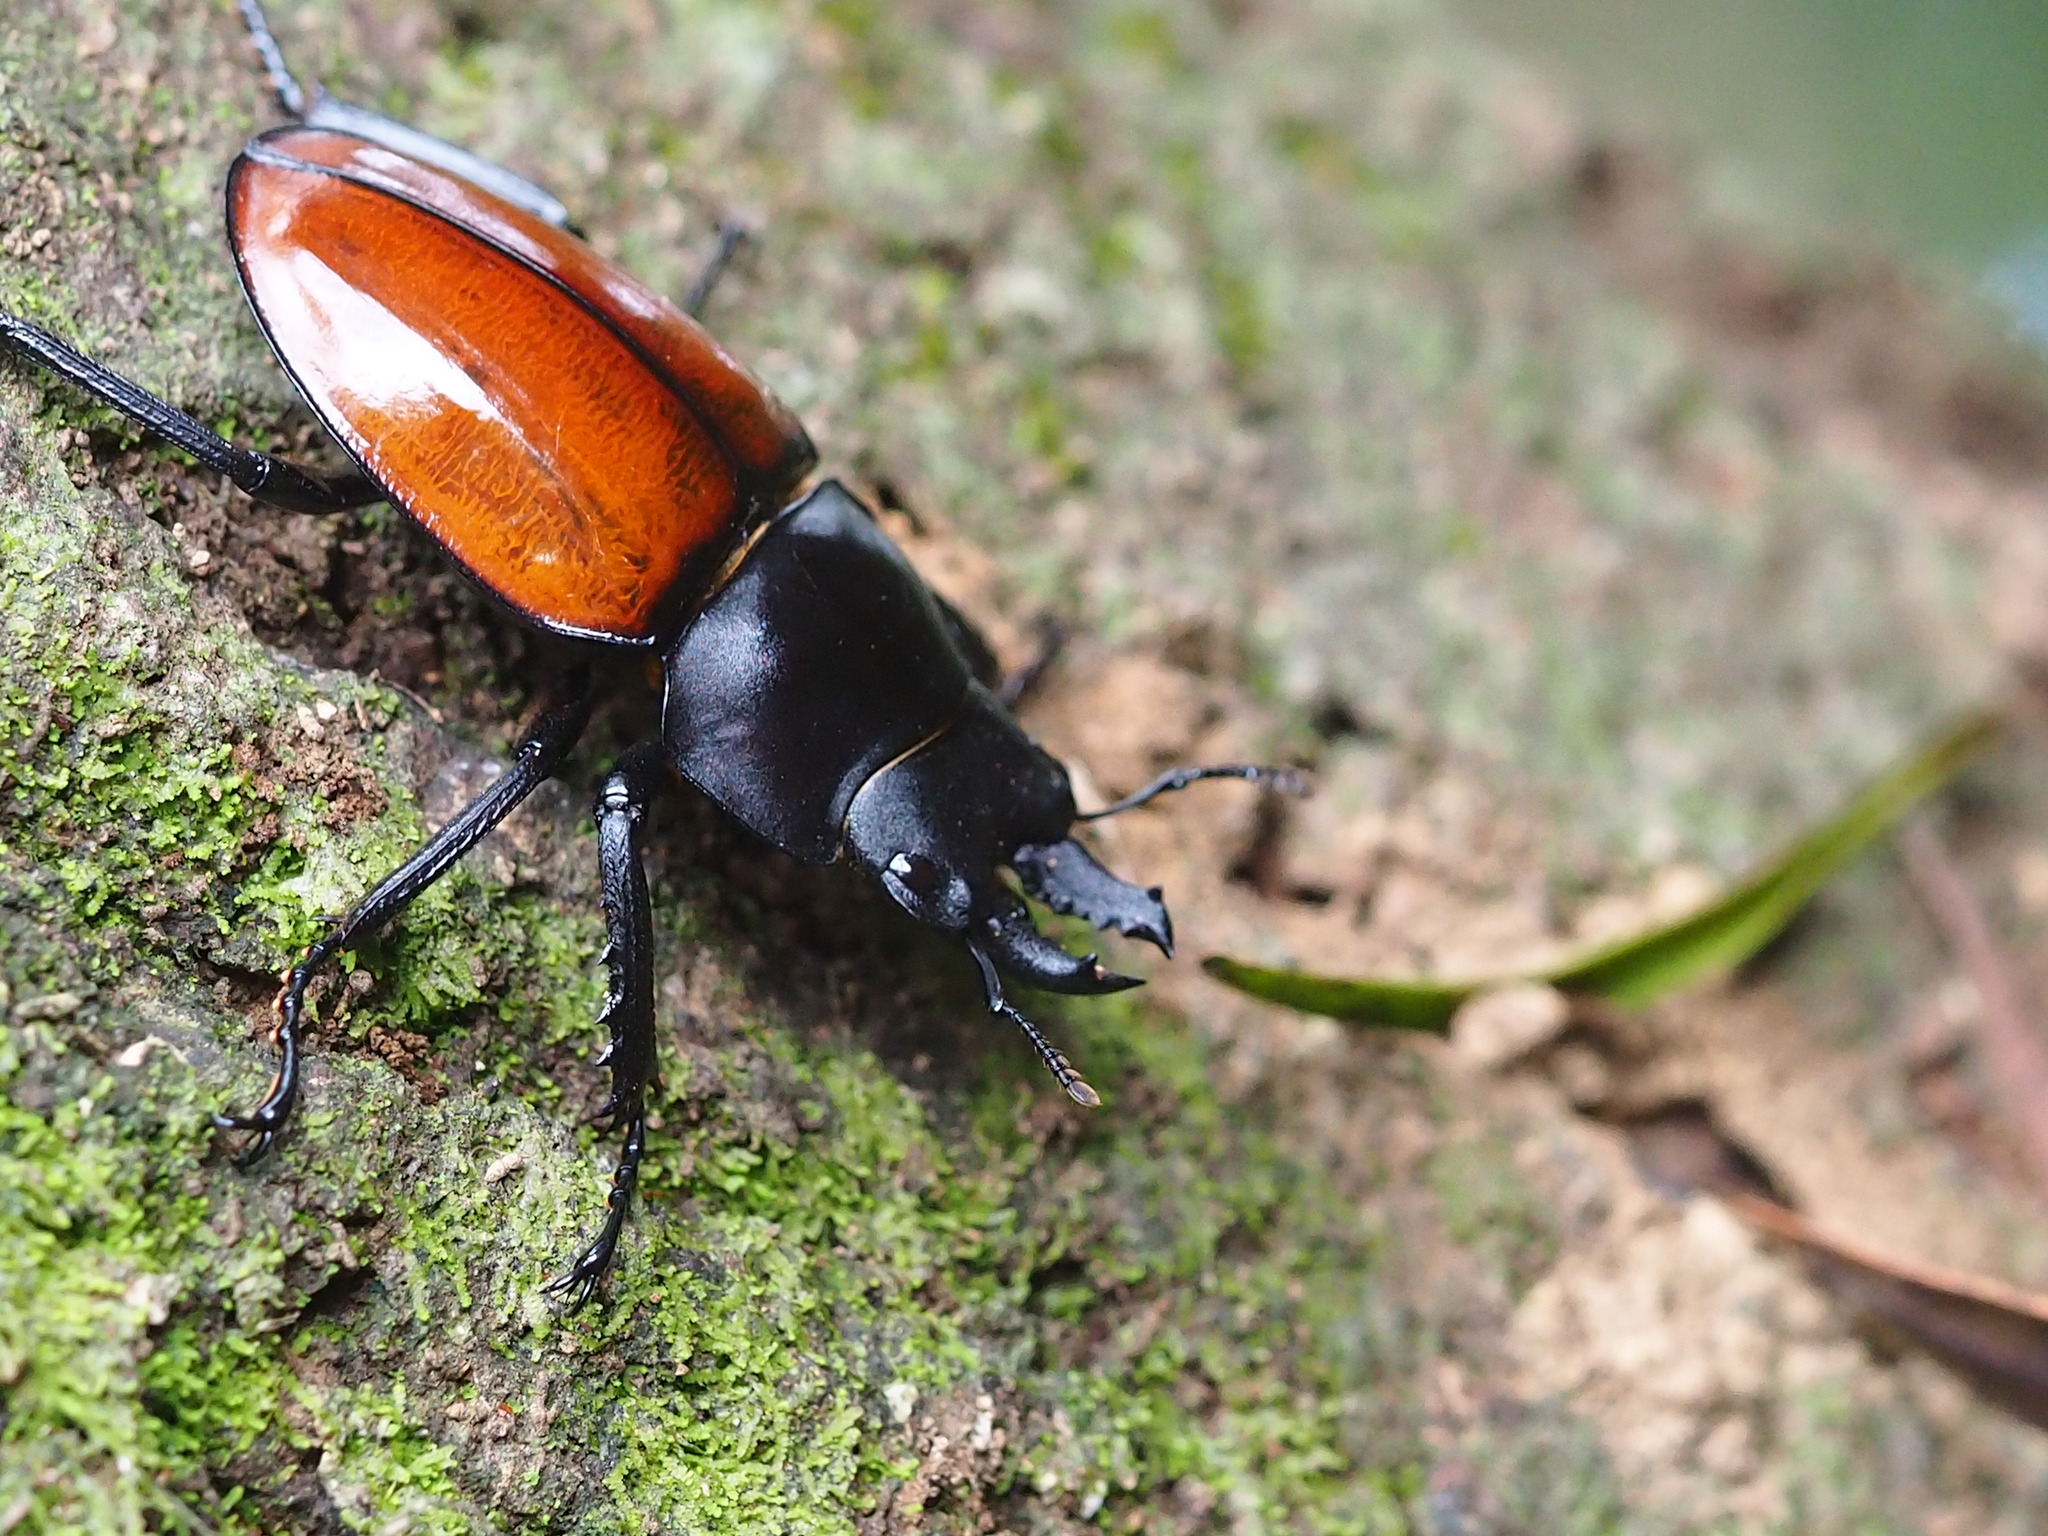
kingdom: Animalia
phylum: Arthropoda
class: Insecta
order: Coleoptera
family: Lucanidae
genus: Neolucanus
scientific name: Neolucanus swinhoei
